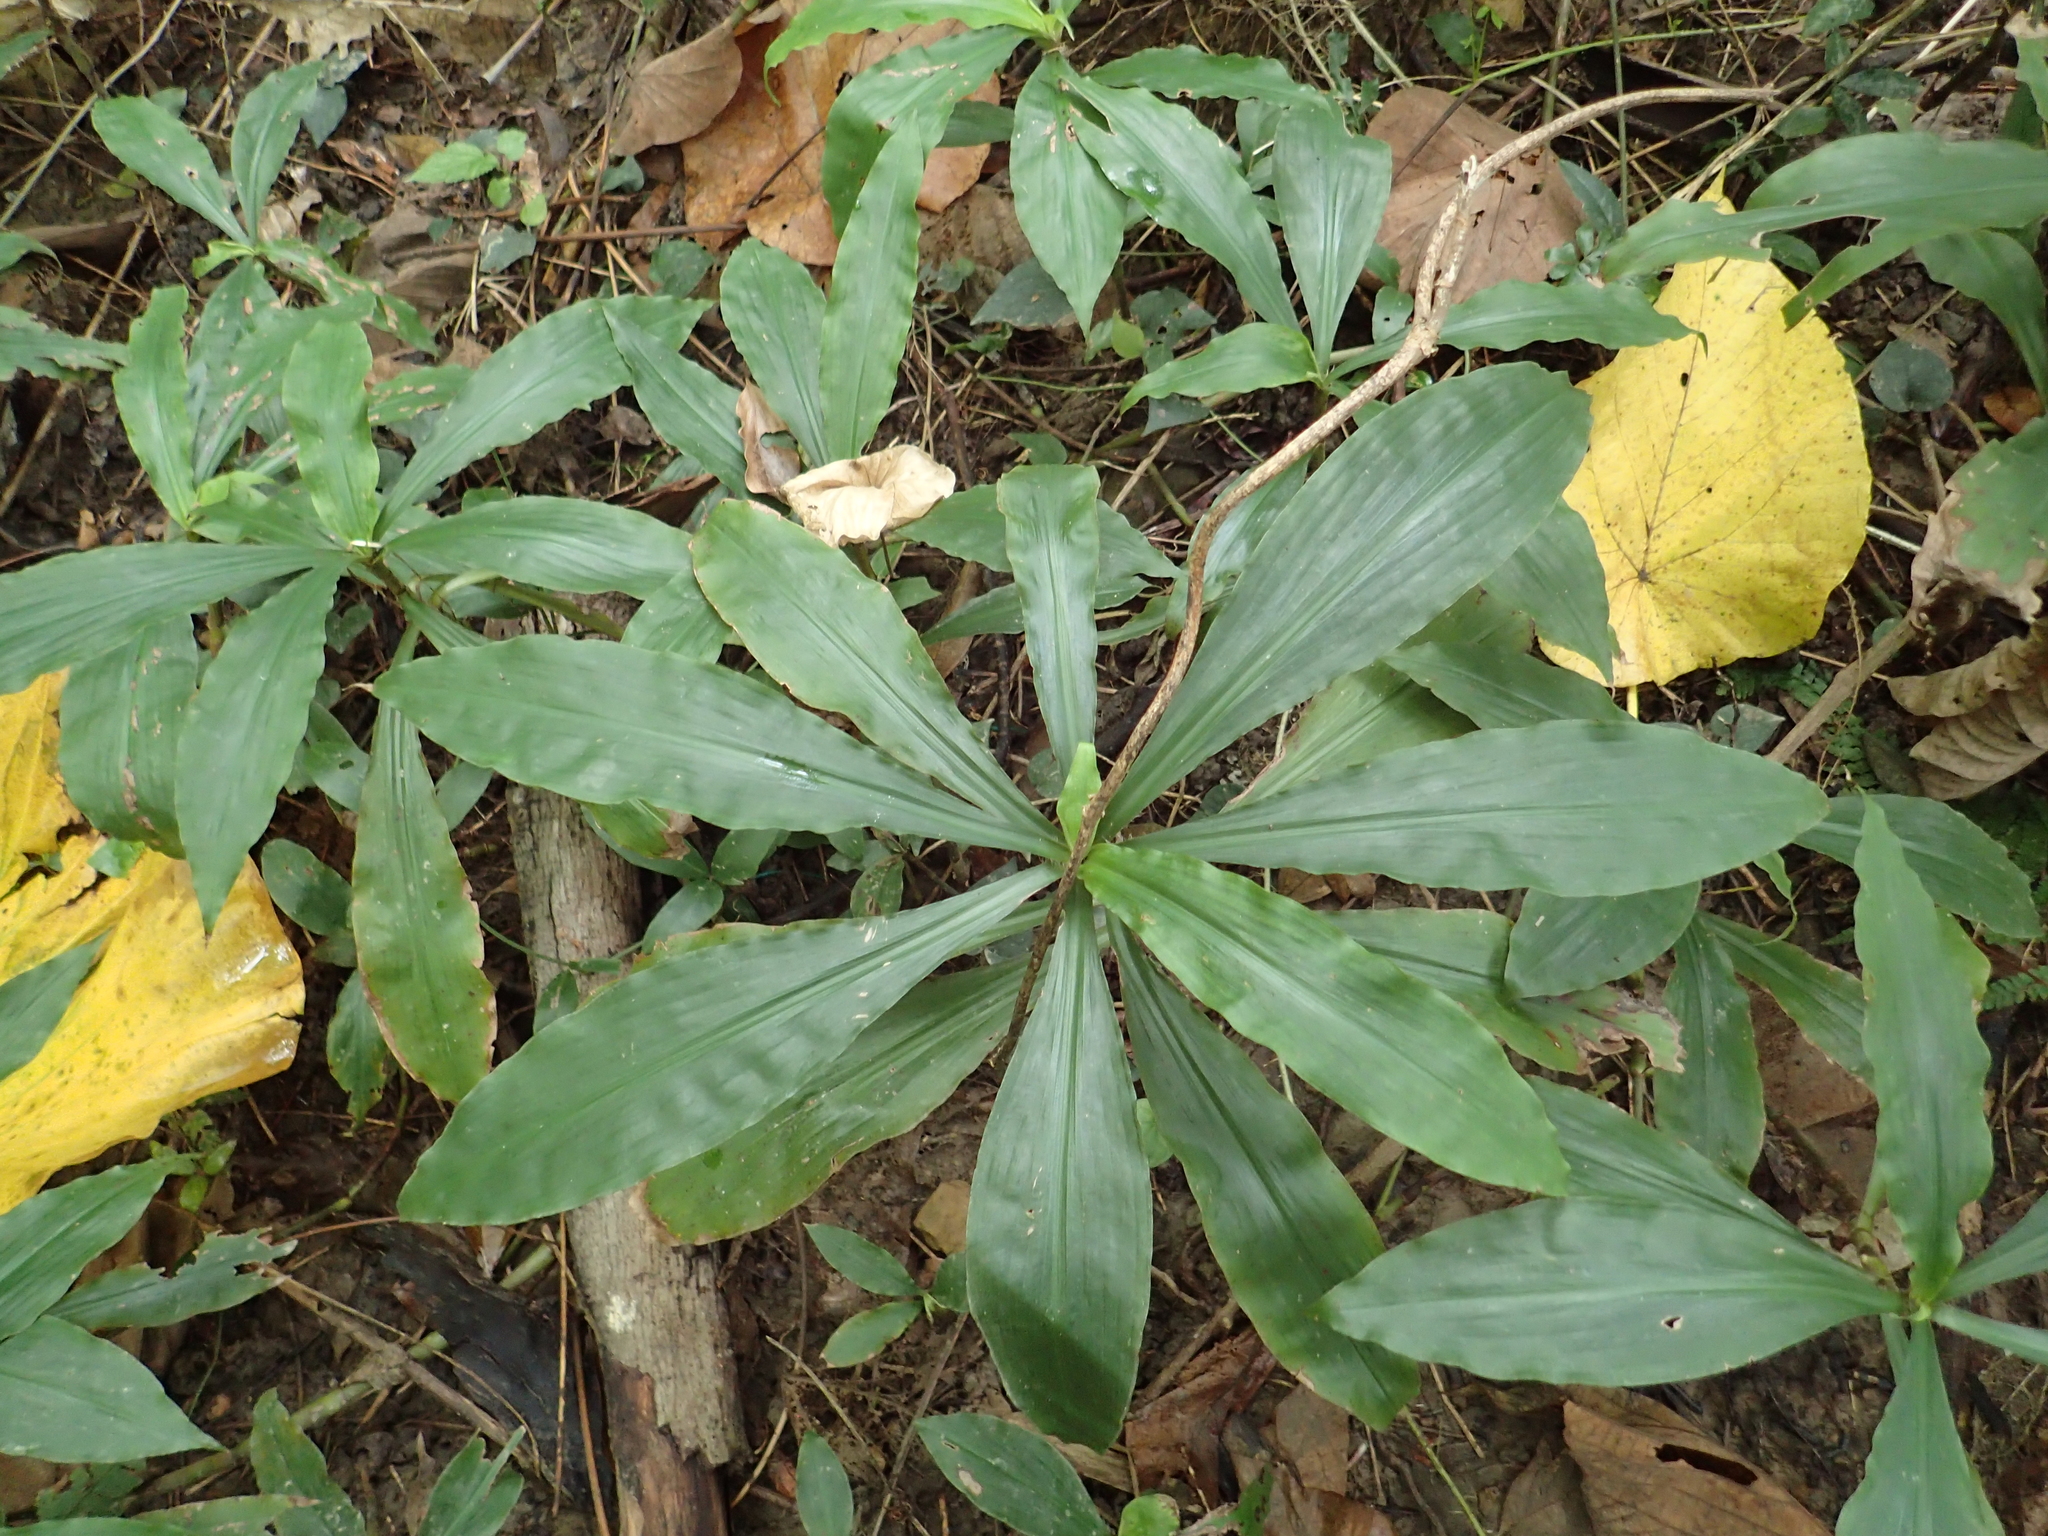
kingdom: Plantae
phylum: Tracheophyta
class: Liliopsida
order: Commelinales
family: Commelinaceae
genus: Amischotolype
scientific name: Amischotolype glabrata
